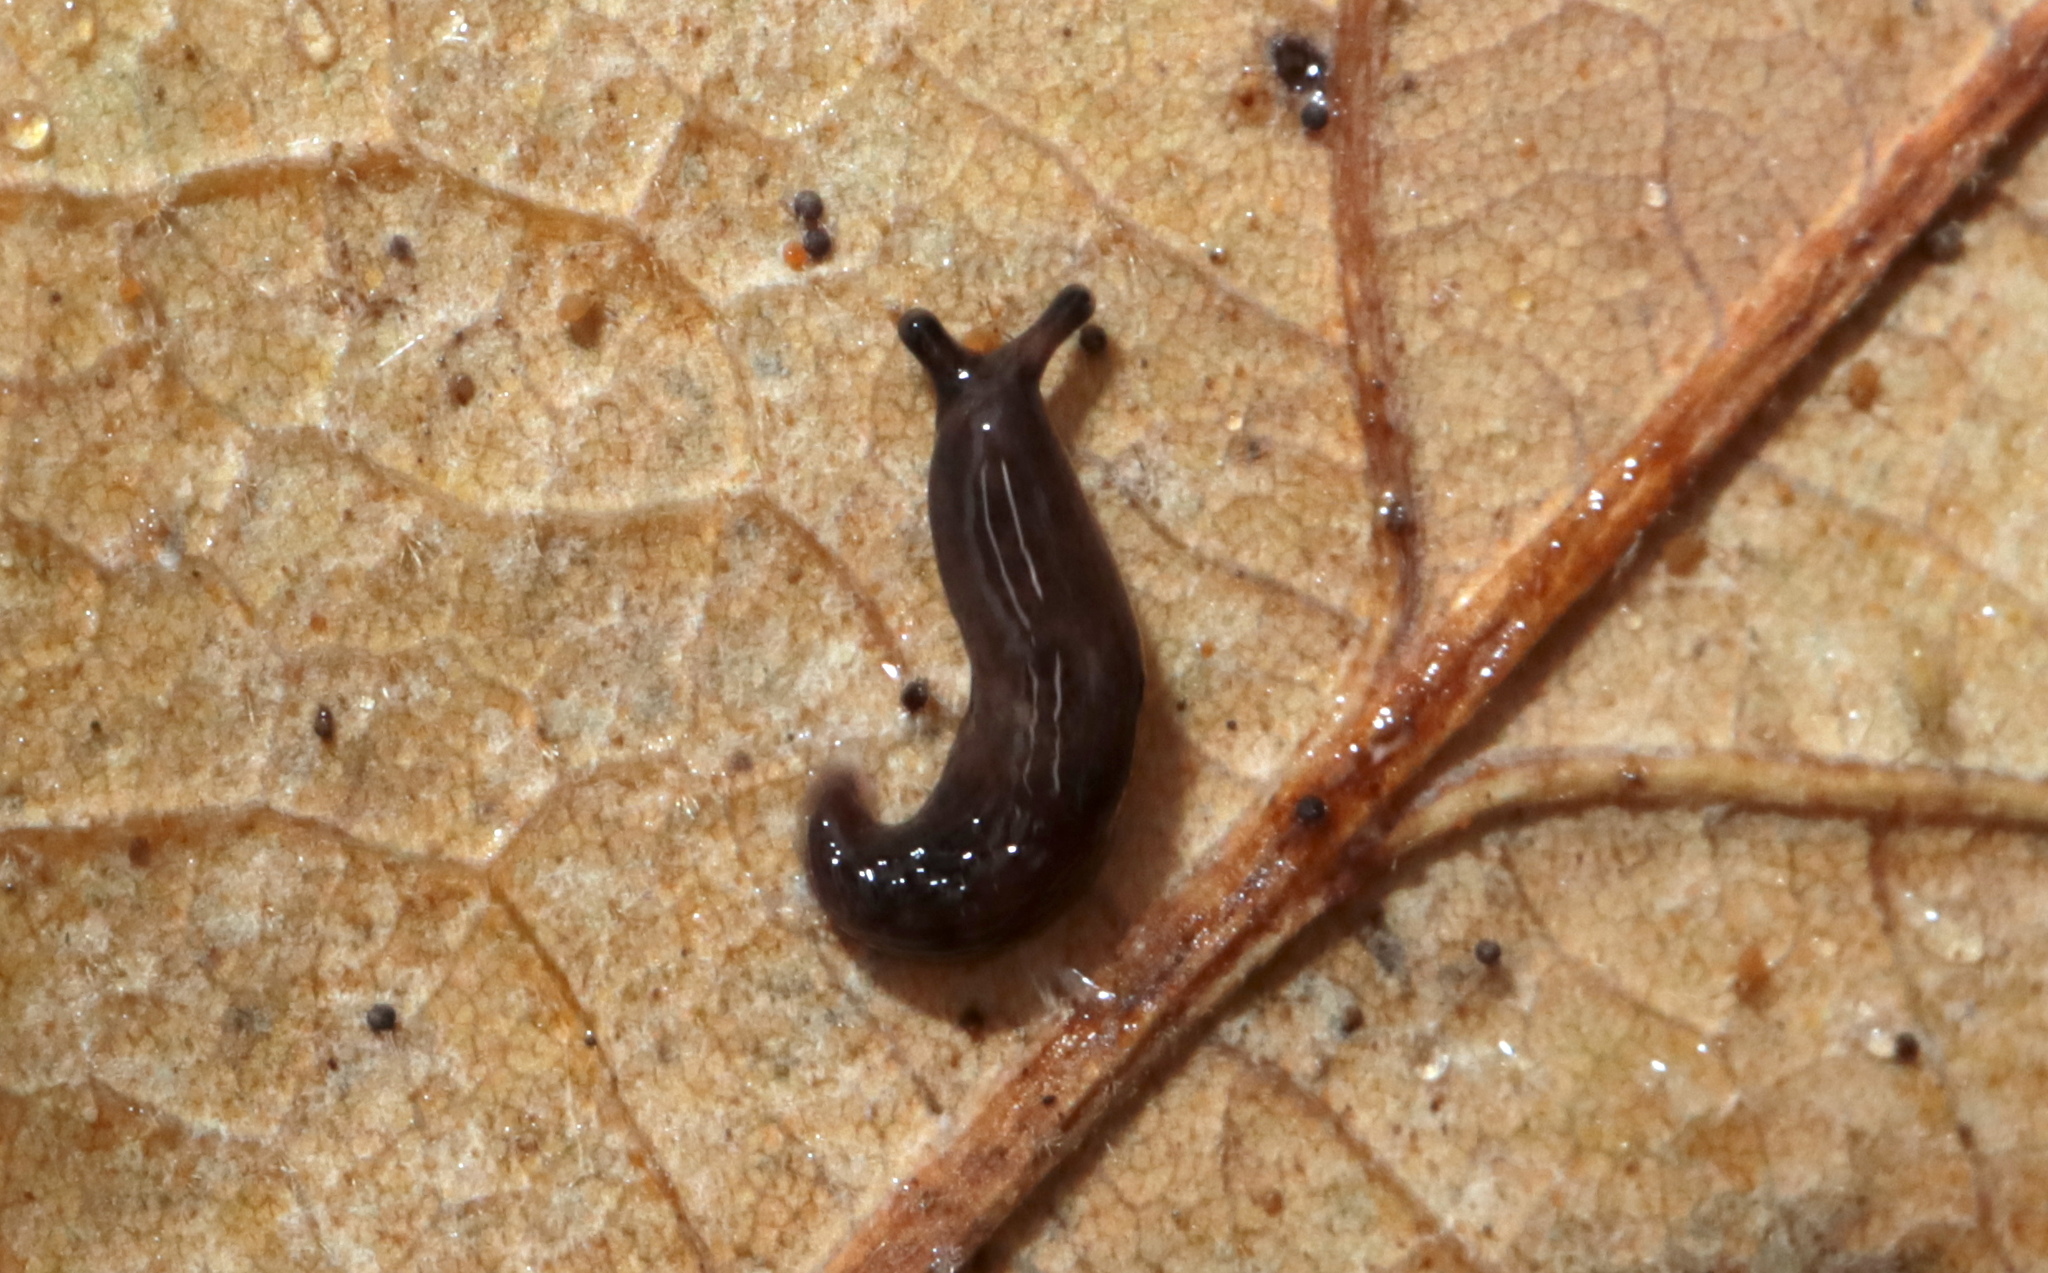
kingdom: Animalia
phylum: Mollusca
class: Gastropoda
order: Stylommatophora
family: Agriolimacidae
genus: Deroceras
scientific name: Deroceras laeve
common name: Marsh slug
